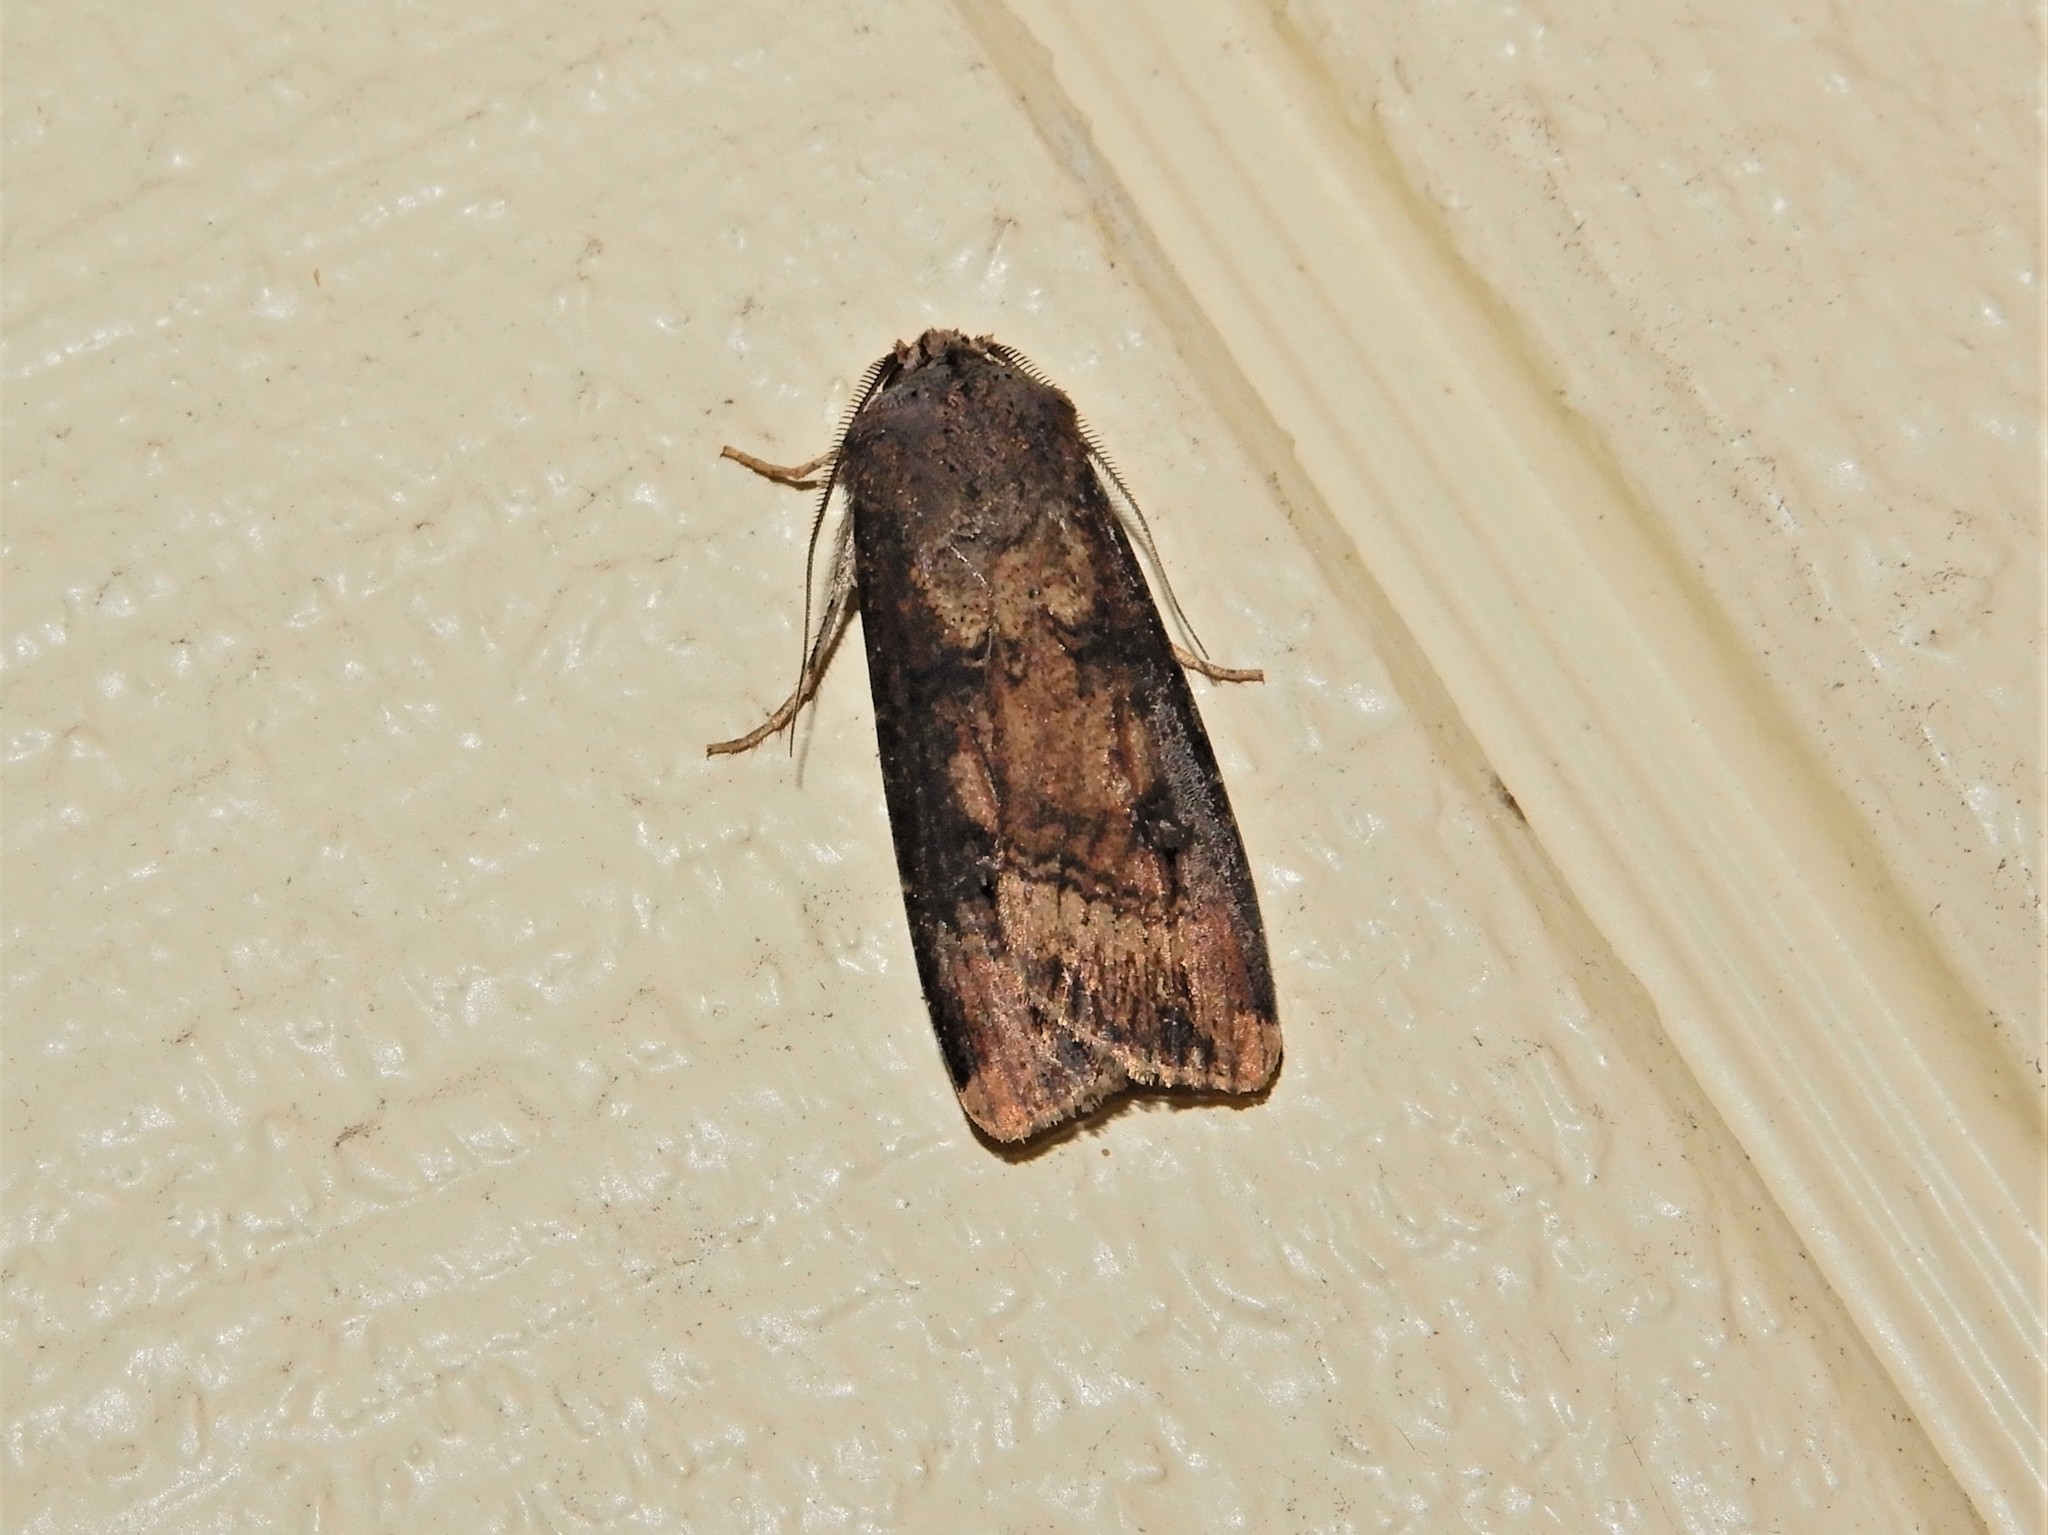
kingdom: Animalia
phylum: Arthropoda
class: Insecta
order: Lepidoptera
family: Noctuidae
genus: Agrotis
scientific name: Agrotis ipsilon
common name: Dark sword-grass
